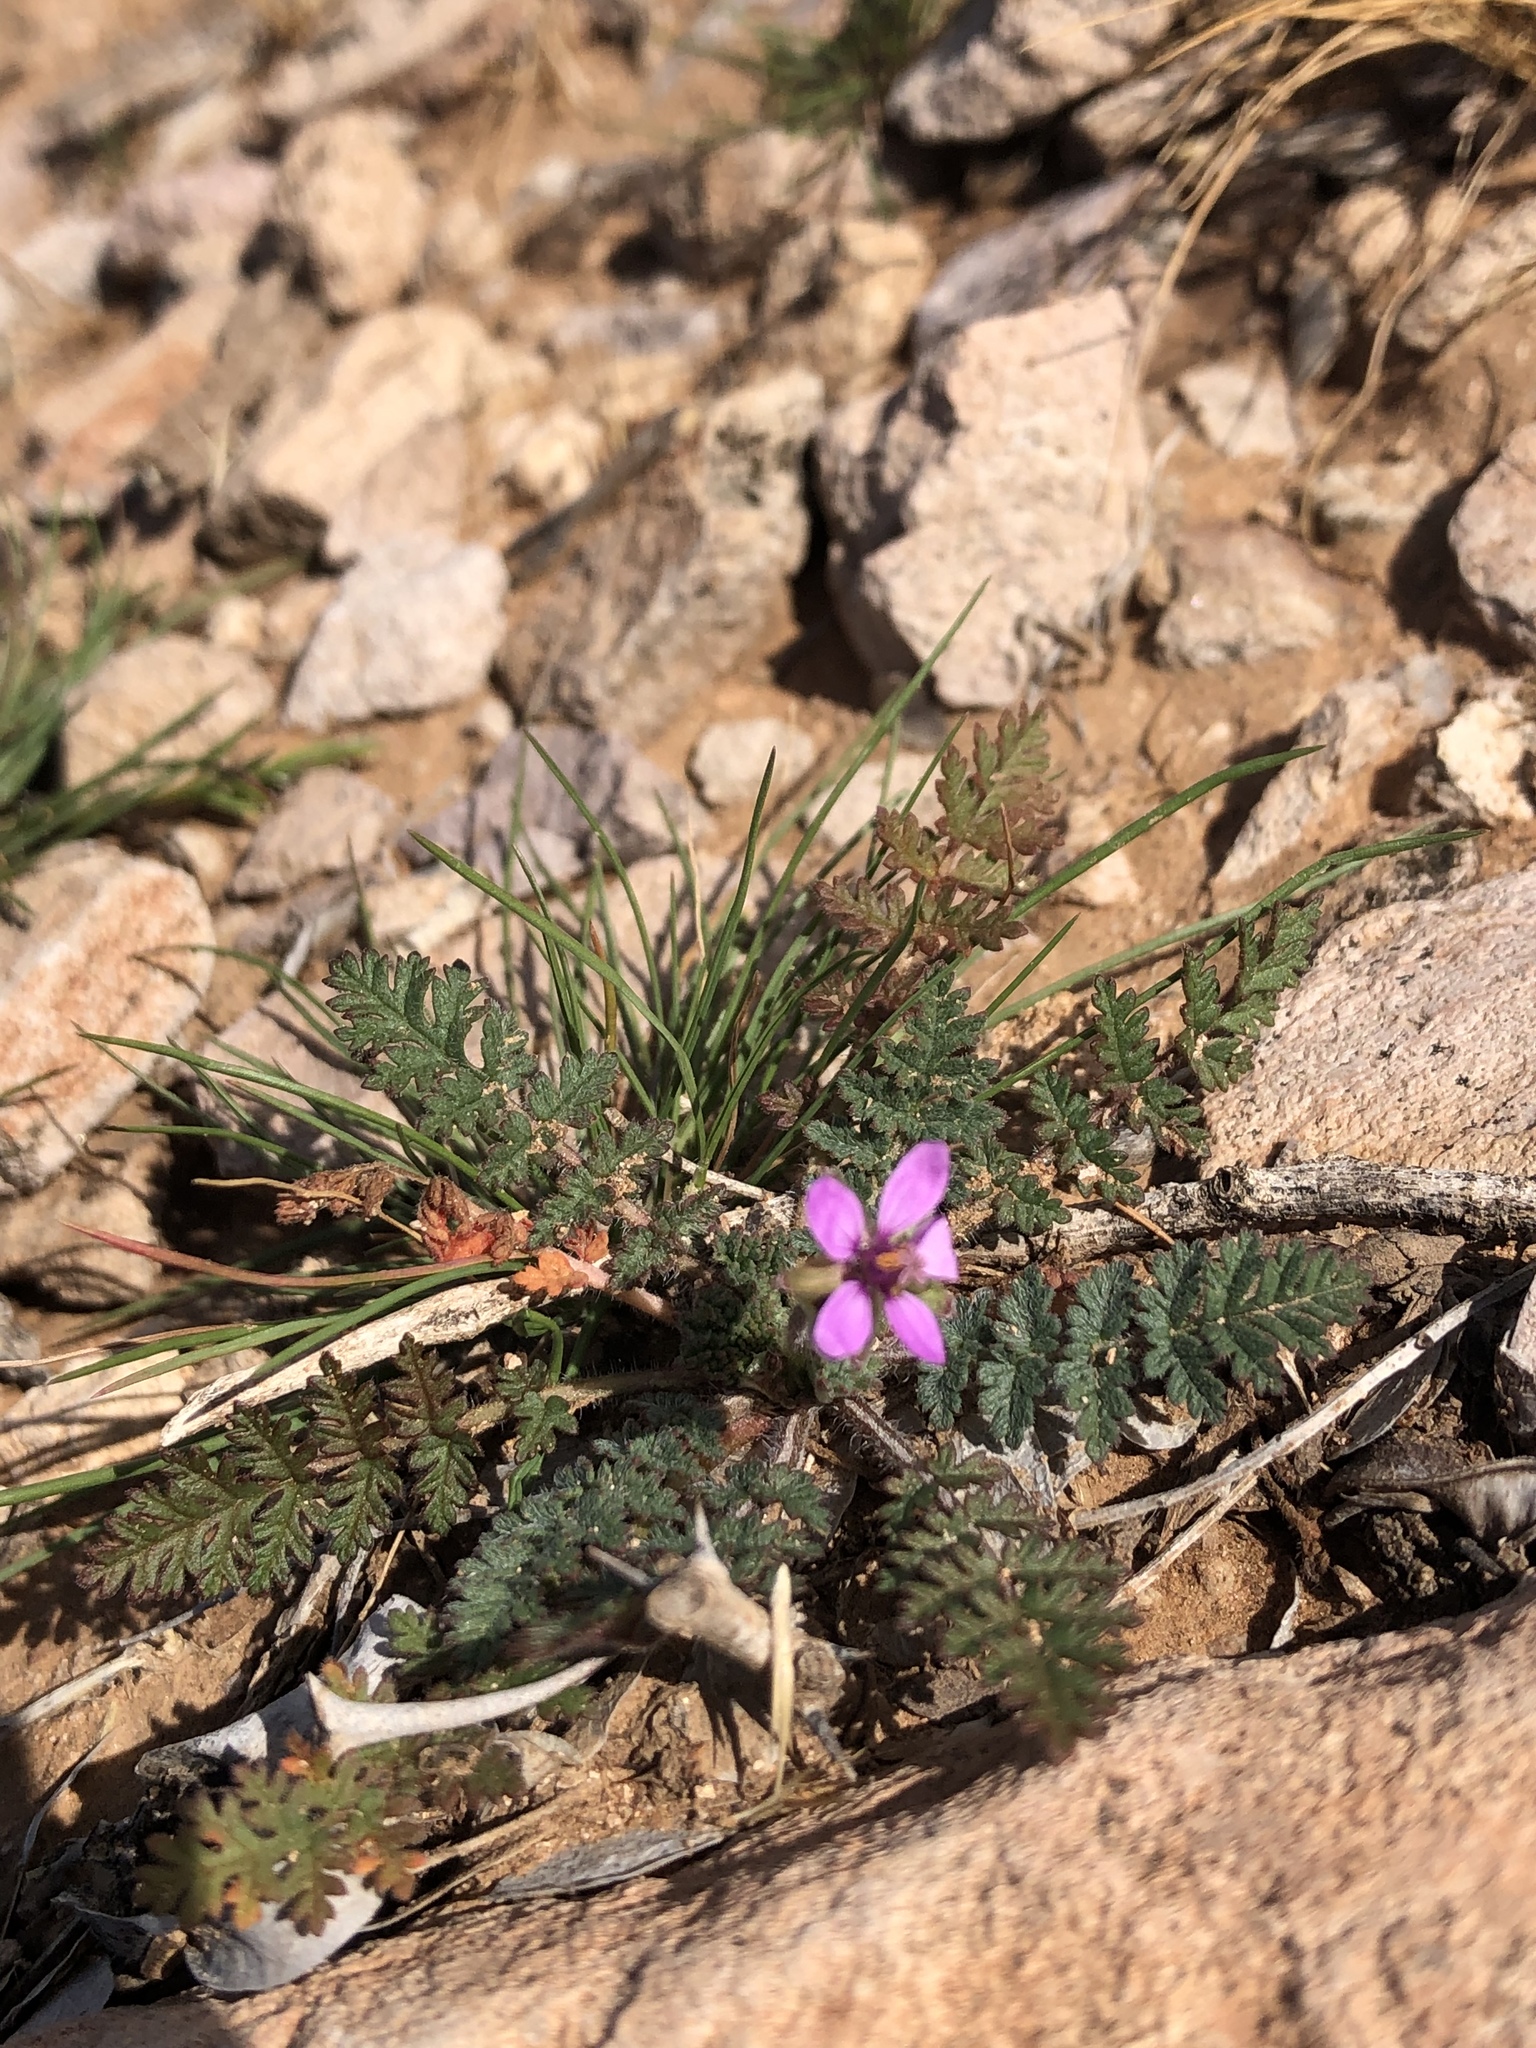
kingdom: Plantae
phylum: Tracheophyta
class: Magnoliopsida
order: Geraniales
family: Geraniaceae
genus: Erodium
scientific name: Erodium cicutarium
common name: Common stork's-bill
